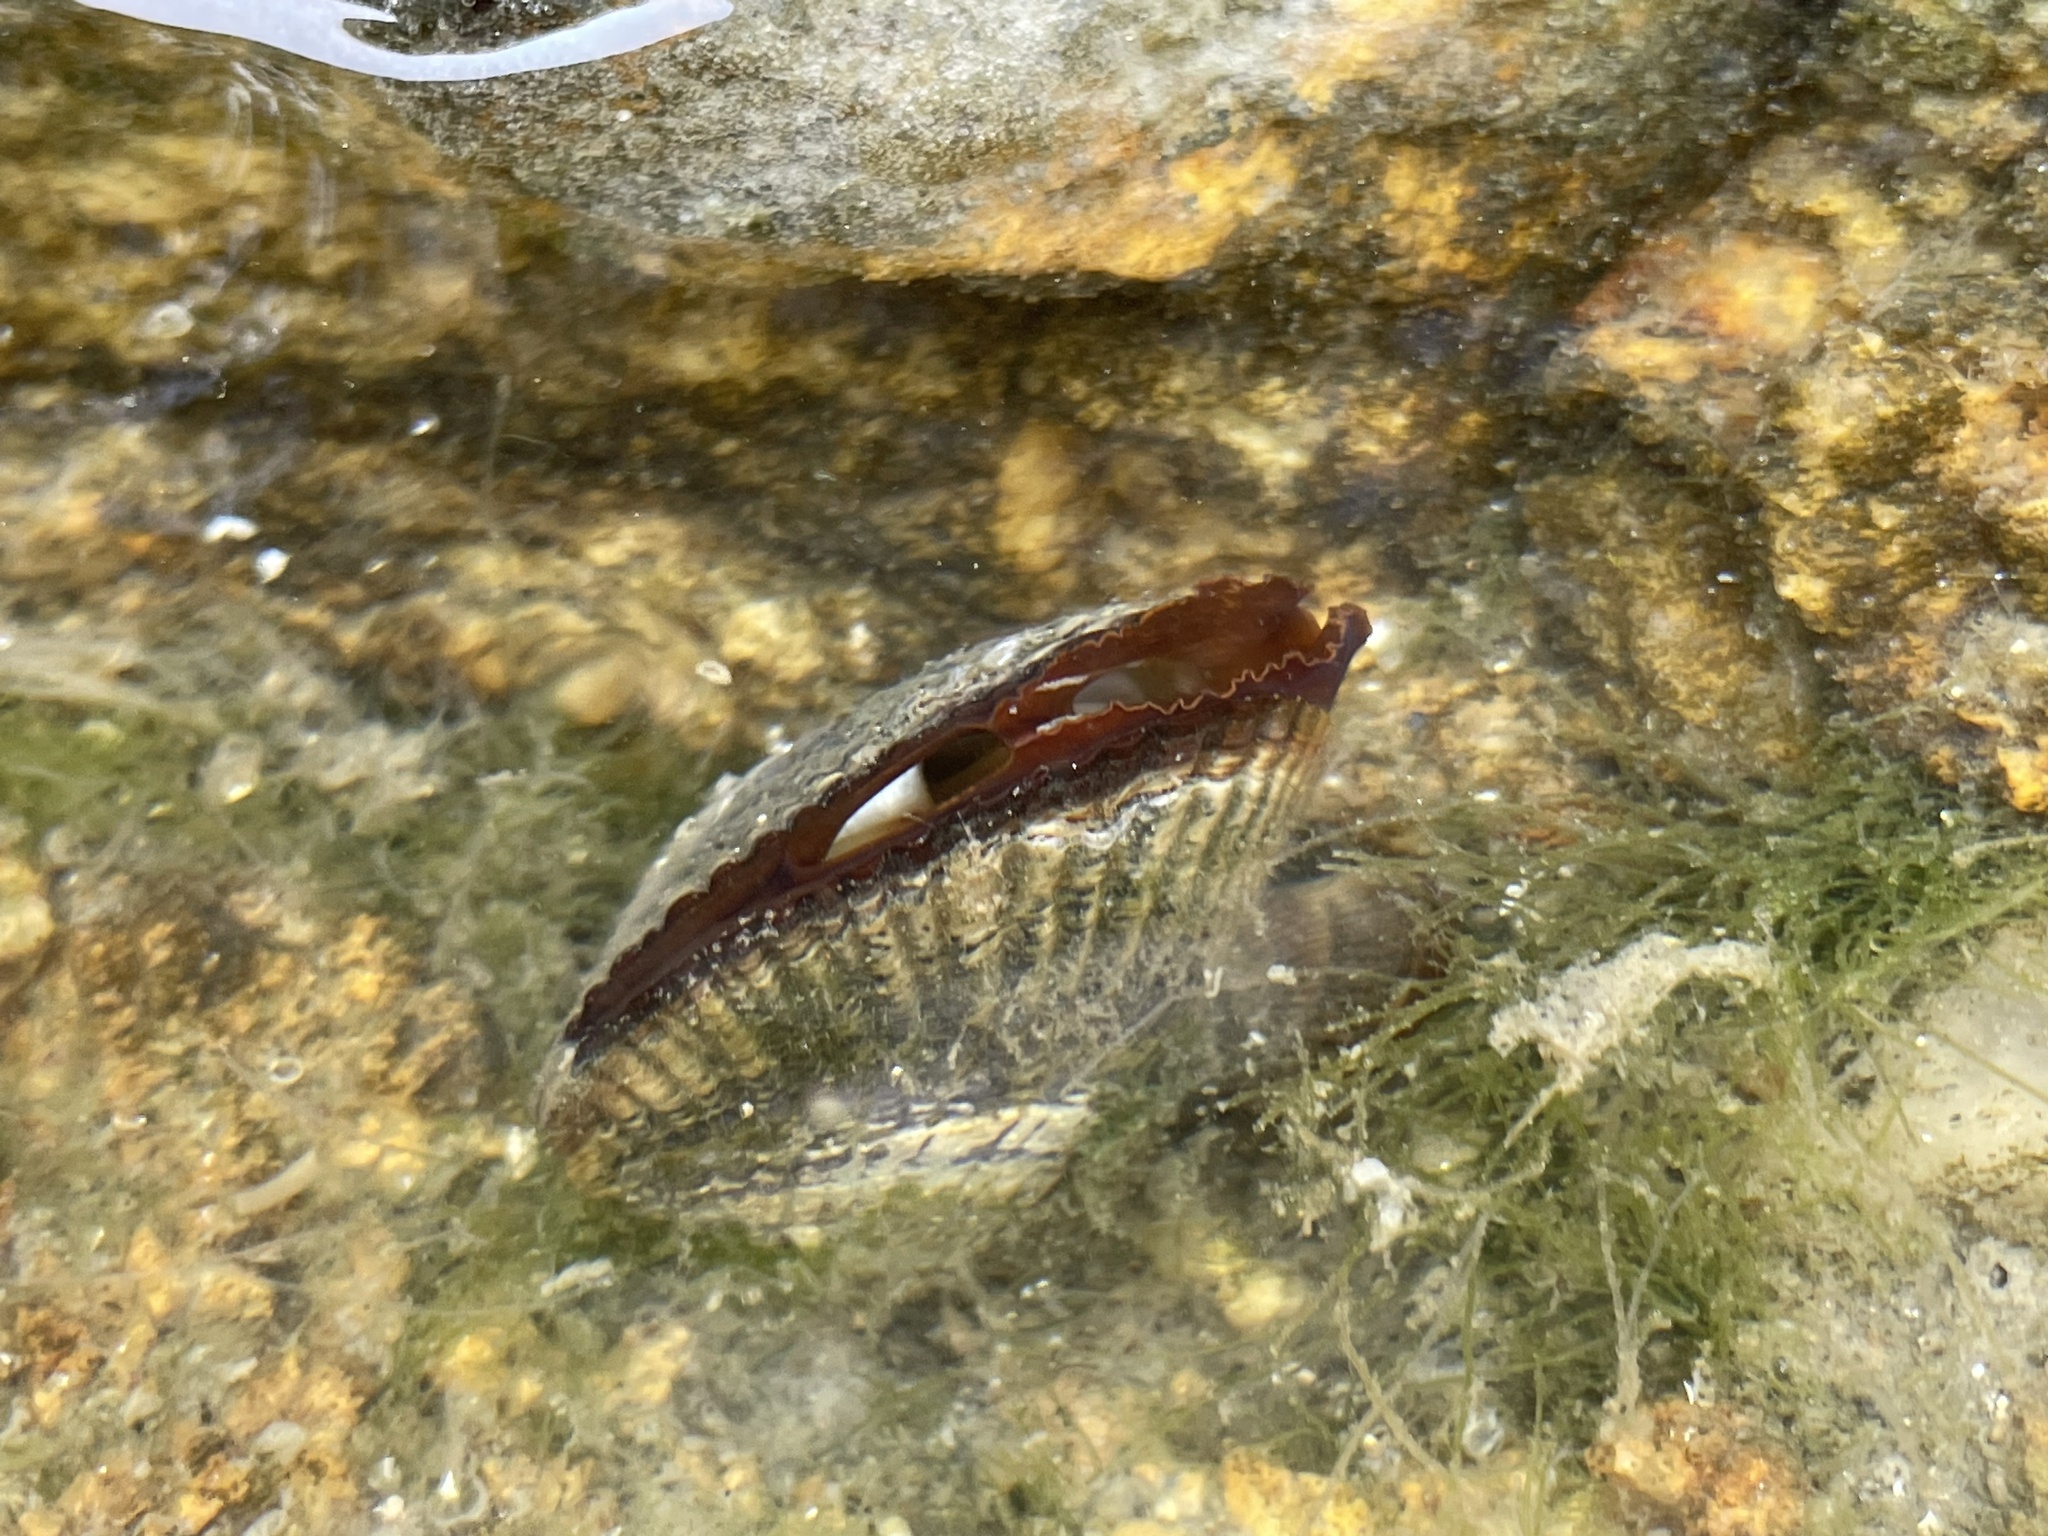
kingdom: Animalia
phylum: Mollusca
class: Bivalvia
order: Mytilida
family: Mytilidae
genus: Geukensia
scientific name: Geukensia demissa
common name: Ribbed mussel
